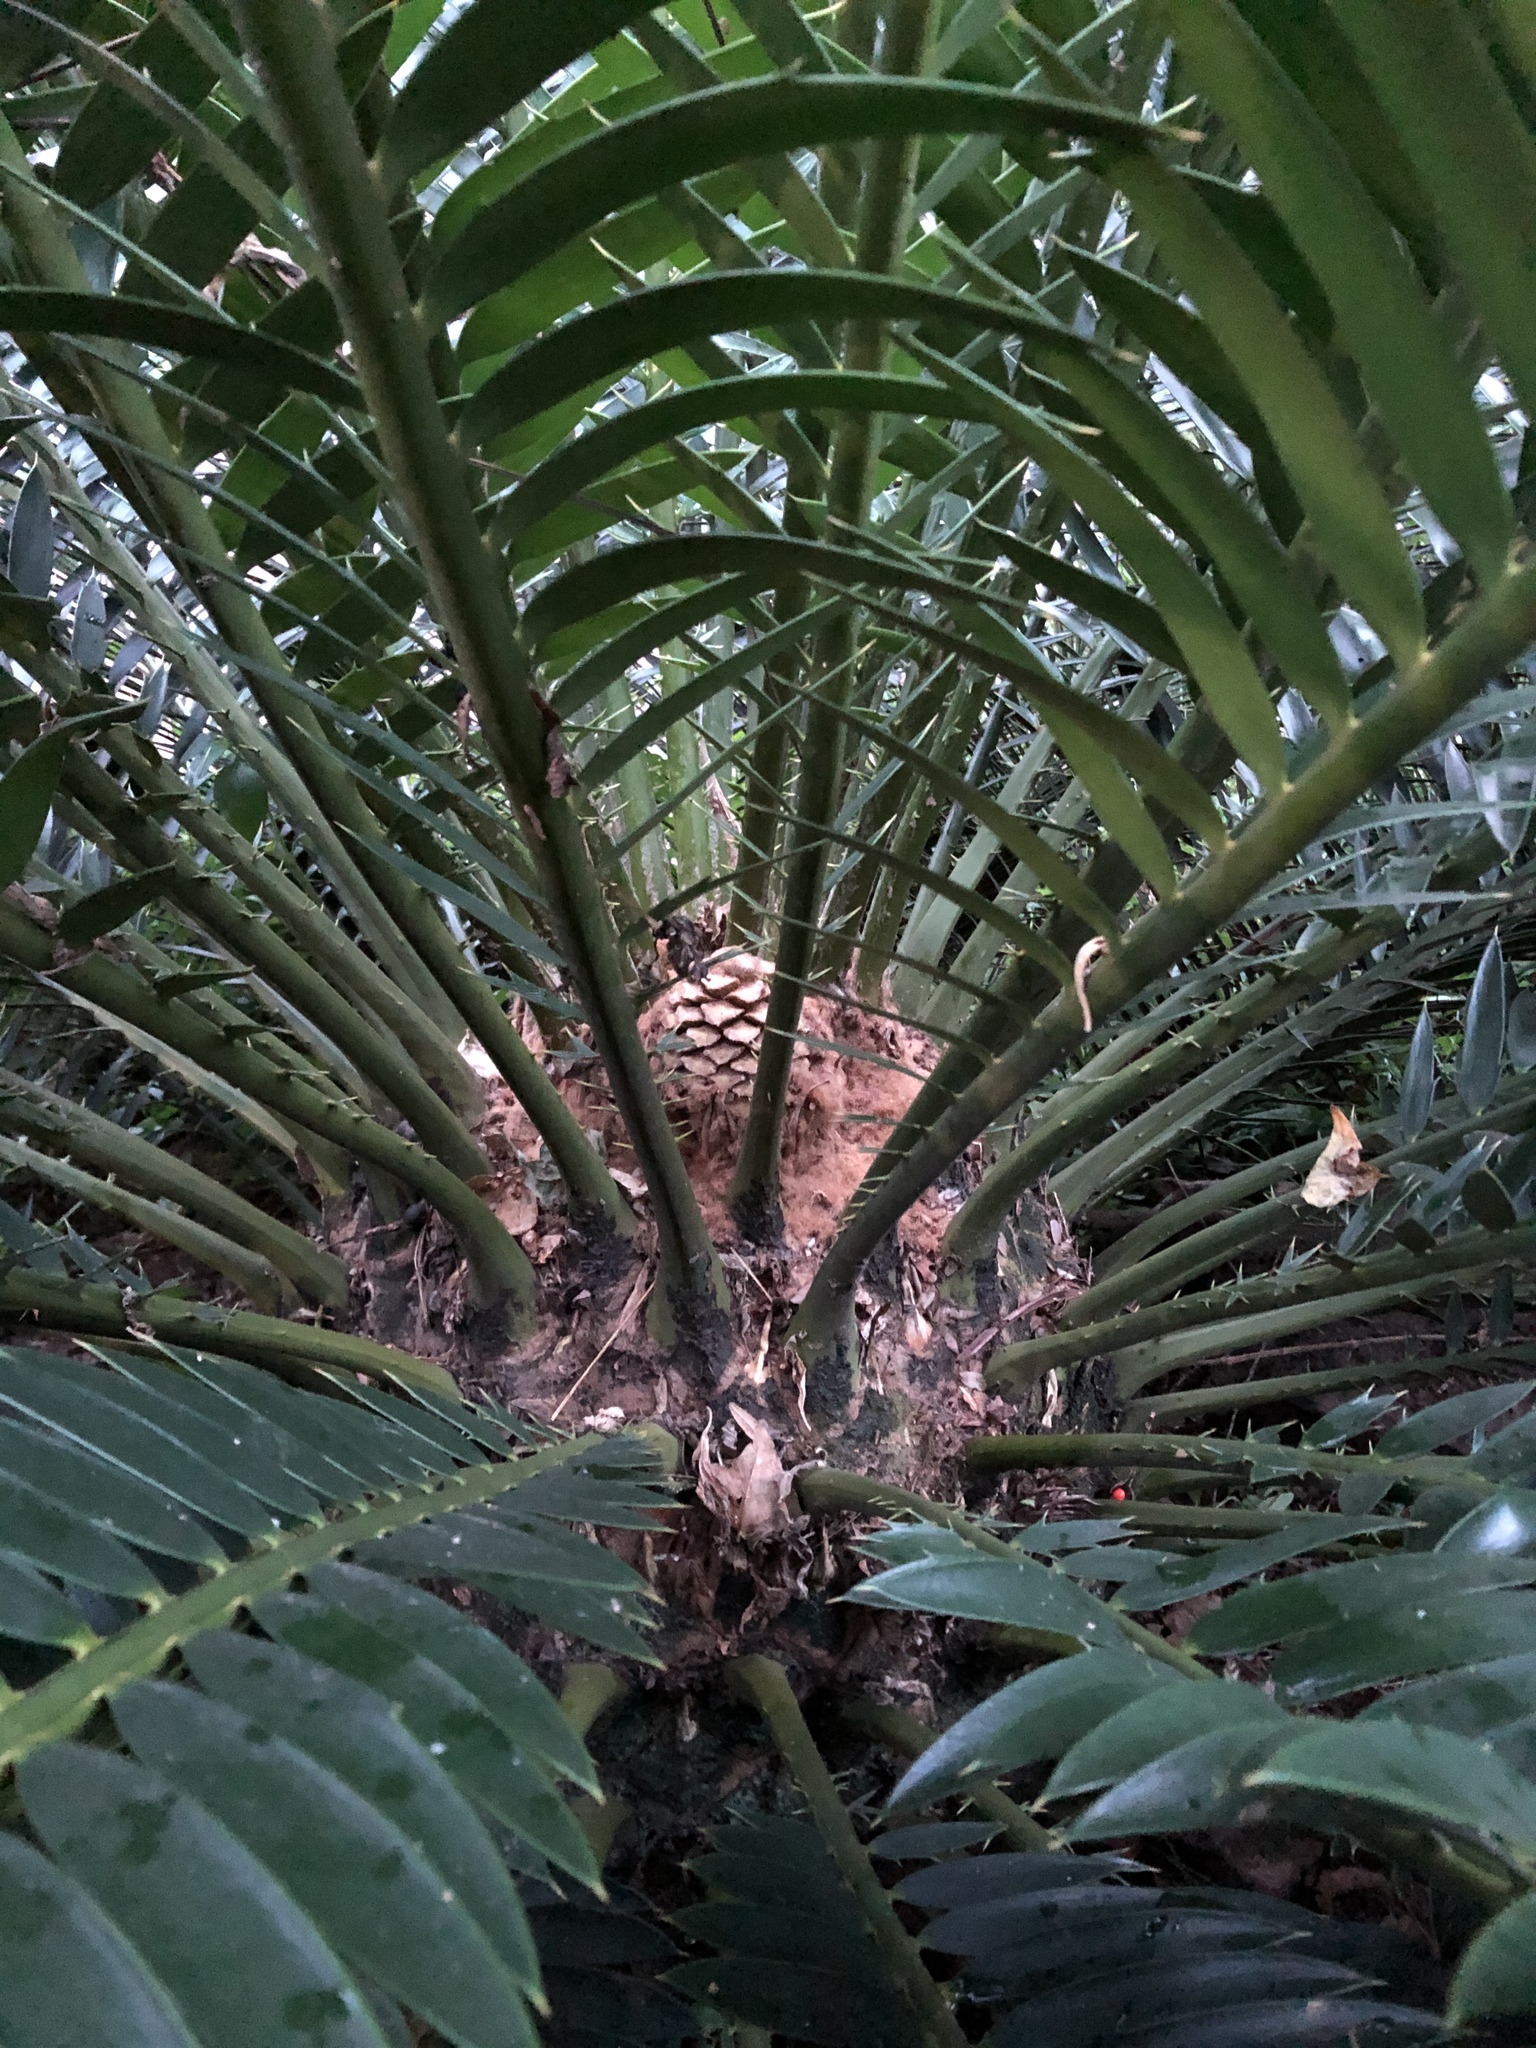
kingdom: Plantae
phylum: Tracheophyta
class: Cycadopsida
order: Cycadales
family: Zamiaceae
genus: Encephalartos
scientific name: Encephalartos natalensis
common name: Natal cycad
